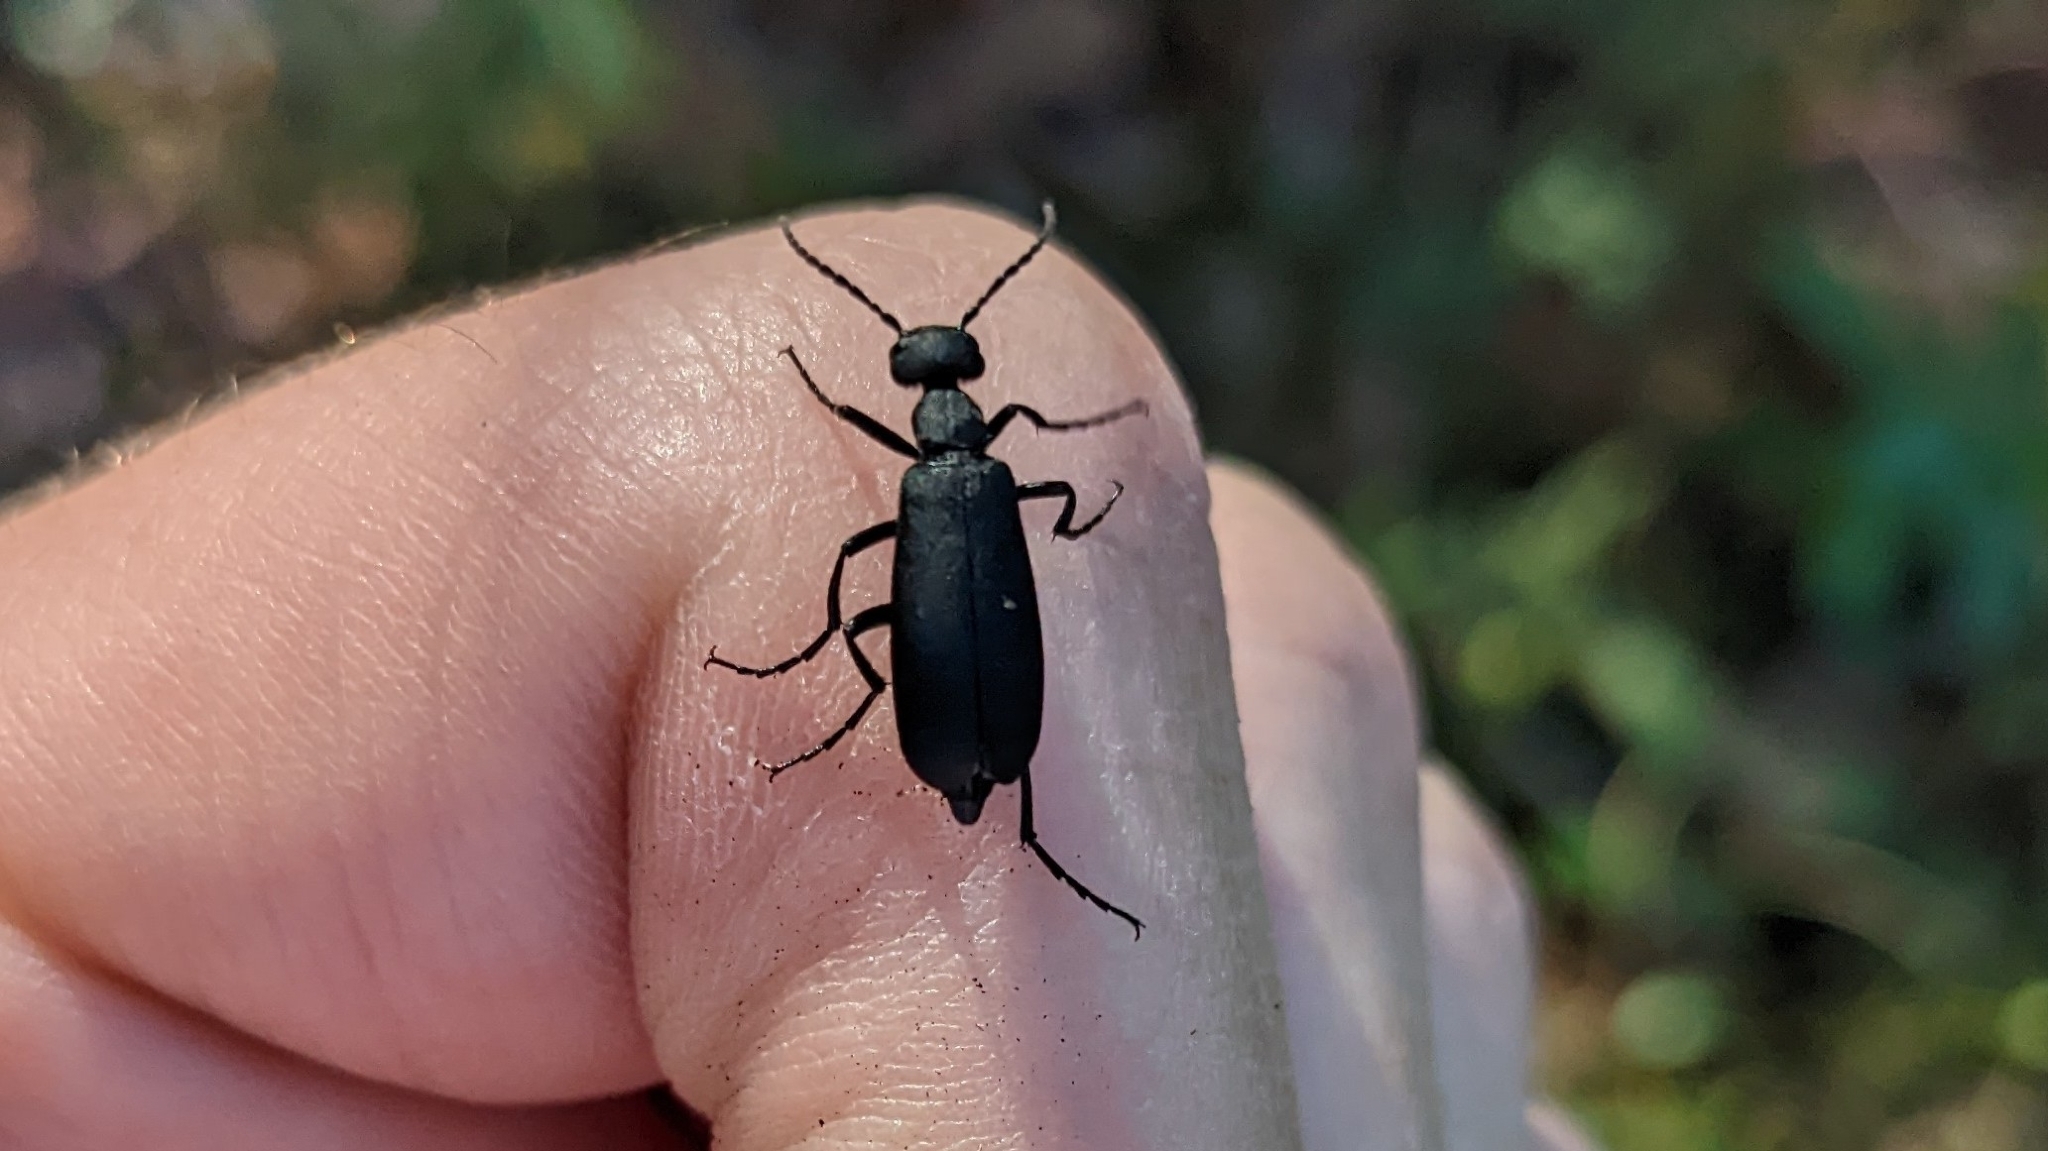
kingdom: Animalia
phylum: Arthropoda
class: Insecta
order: Coleoptera
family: Meloidae
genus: Epicauta
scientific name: Epicauta pensylvanica
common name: Black blister beetle
